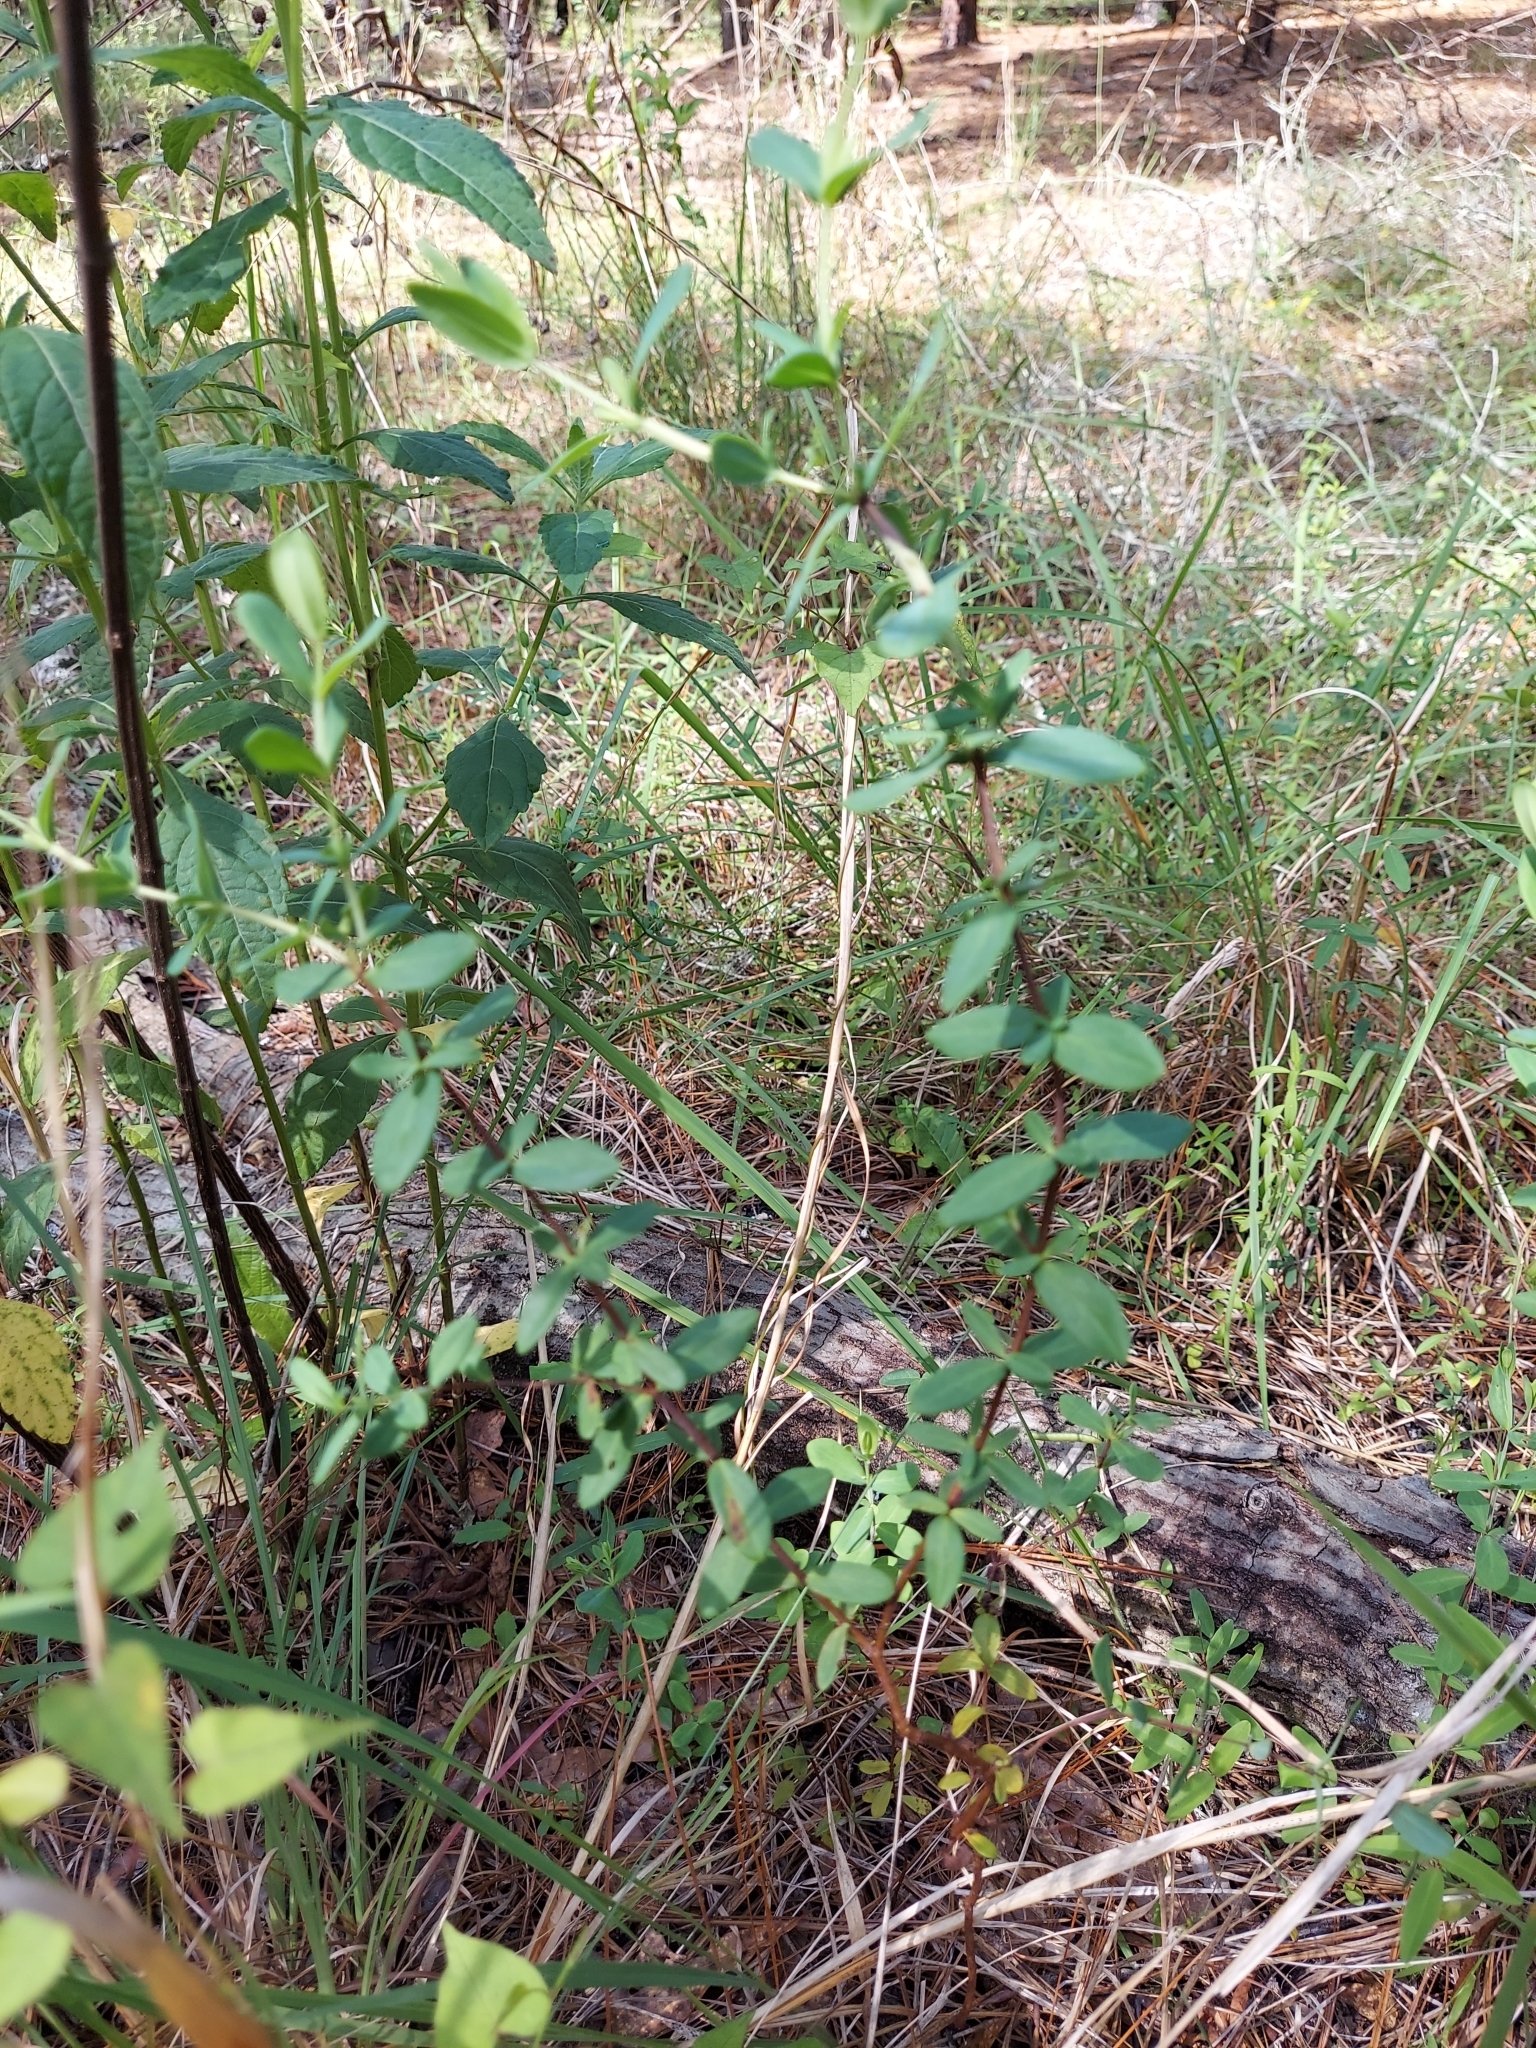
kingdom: Plantae
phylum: Tracheophyta
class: Magnoliopsida
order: Malpighiales
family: Hypericaceae
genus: Hypericum
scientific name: Hypericum crux-andreae
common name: St.-peter's-wort
